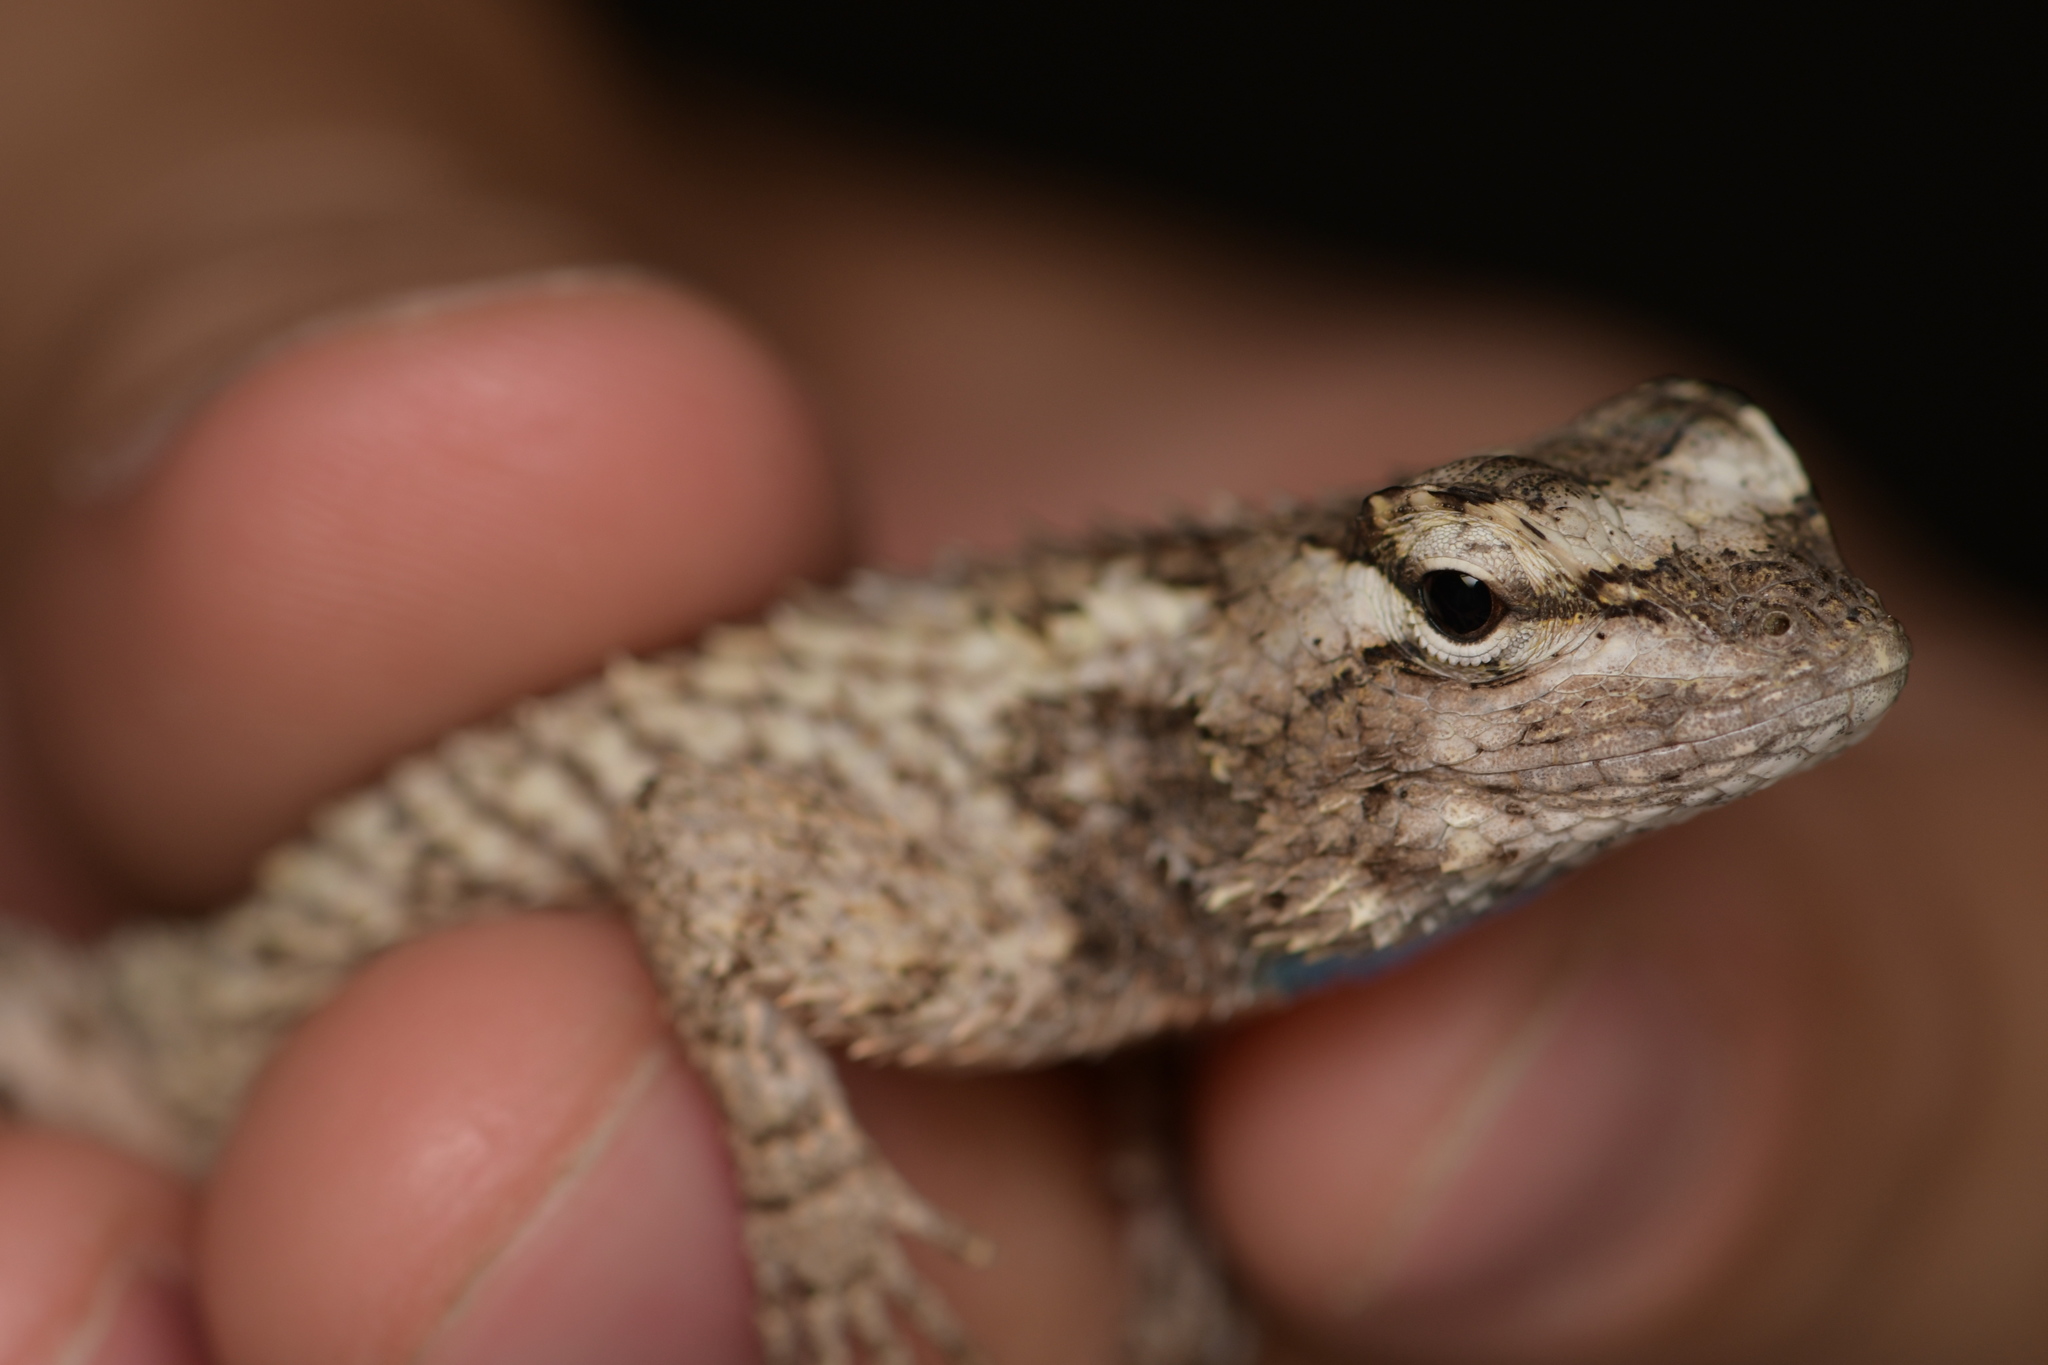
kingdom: Animalia
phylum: Chordata
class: Squamata
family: Phrynosomatidae
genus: Sceloporus
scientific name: Sceloporus melanorhinus
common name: Black-nosed lizard
